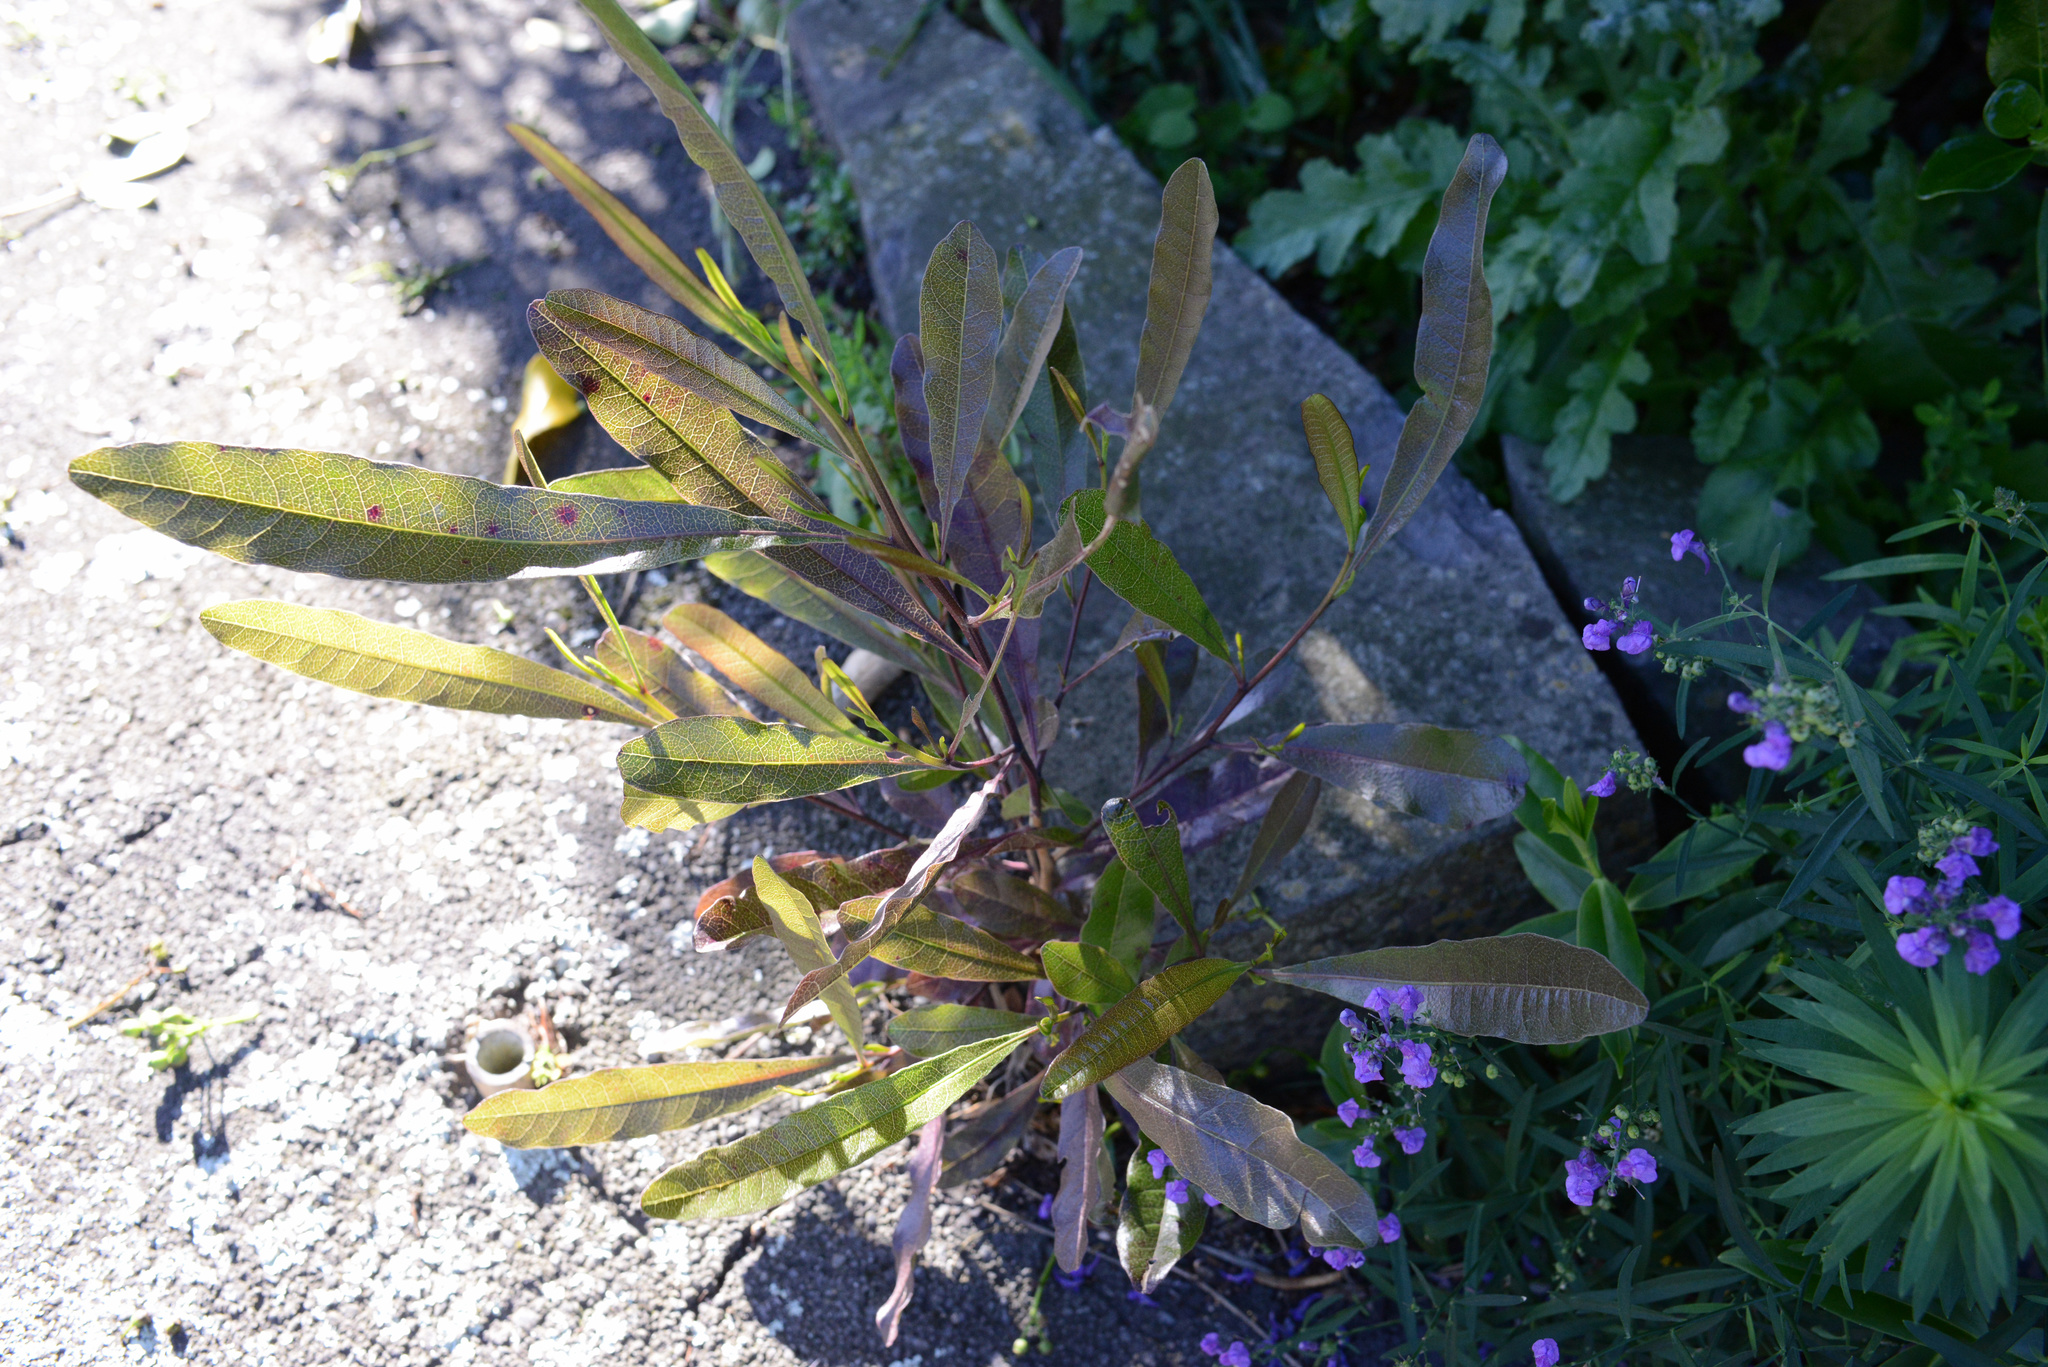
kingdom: Plantae
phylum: Tracheophyta
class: Magnoliopsida
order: Sapindales
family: Sapindaceae
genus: Dodonaea
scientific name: Dodonaea viscosa
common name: Hopbush
